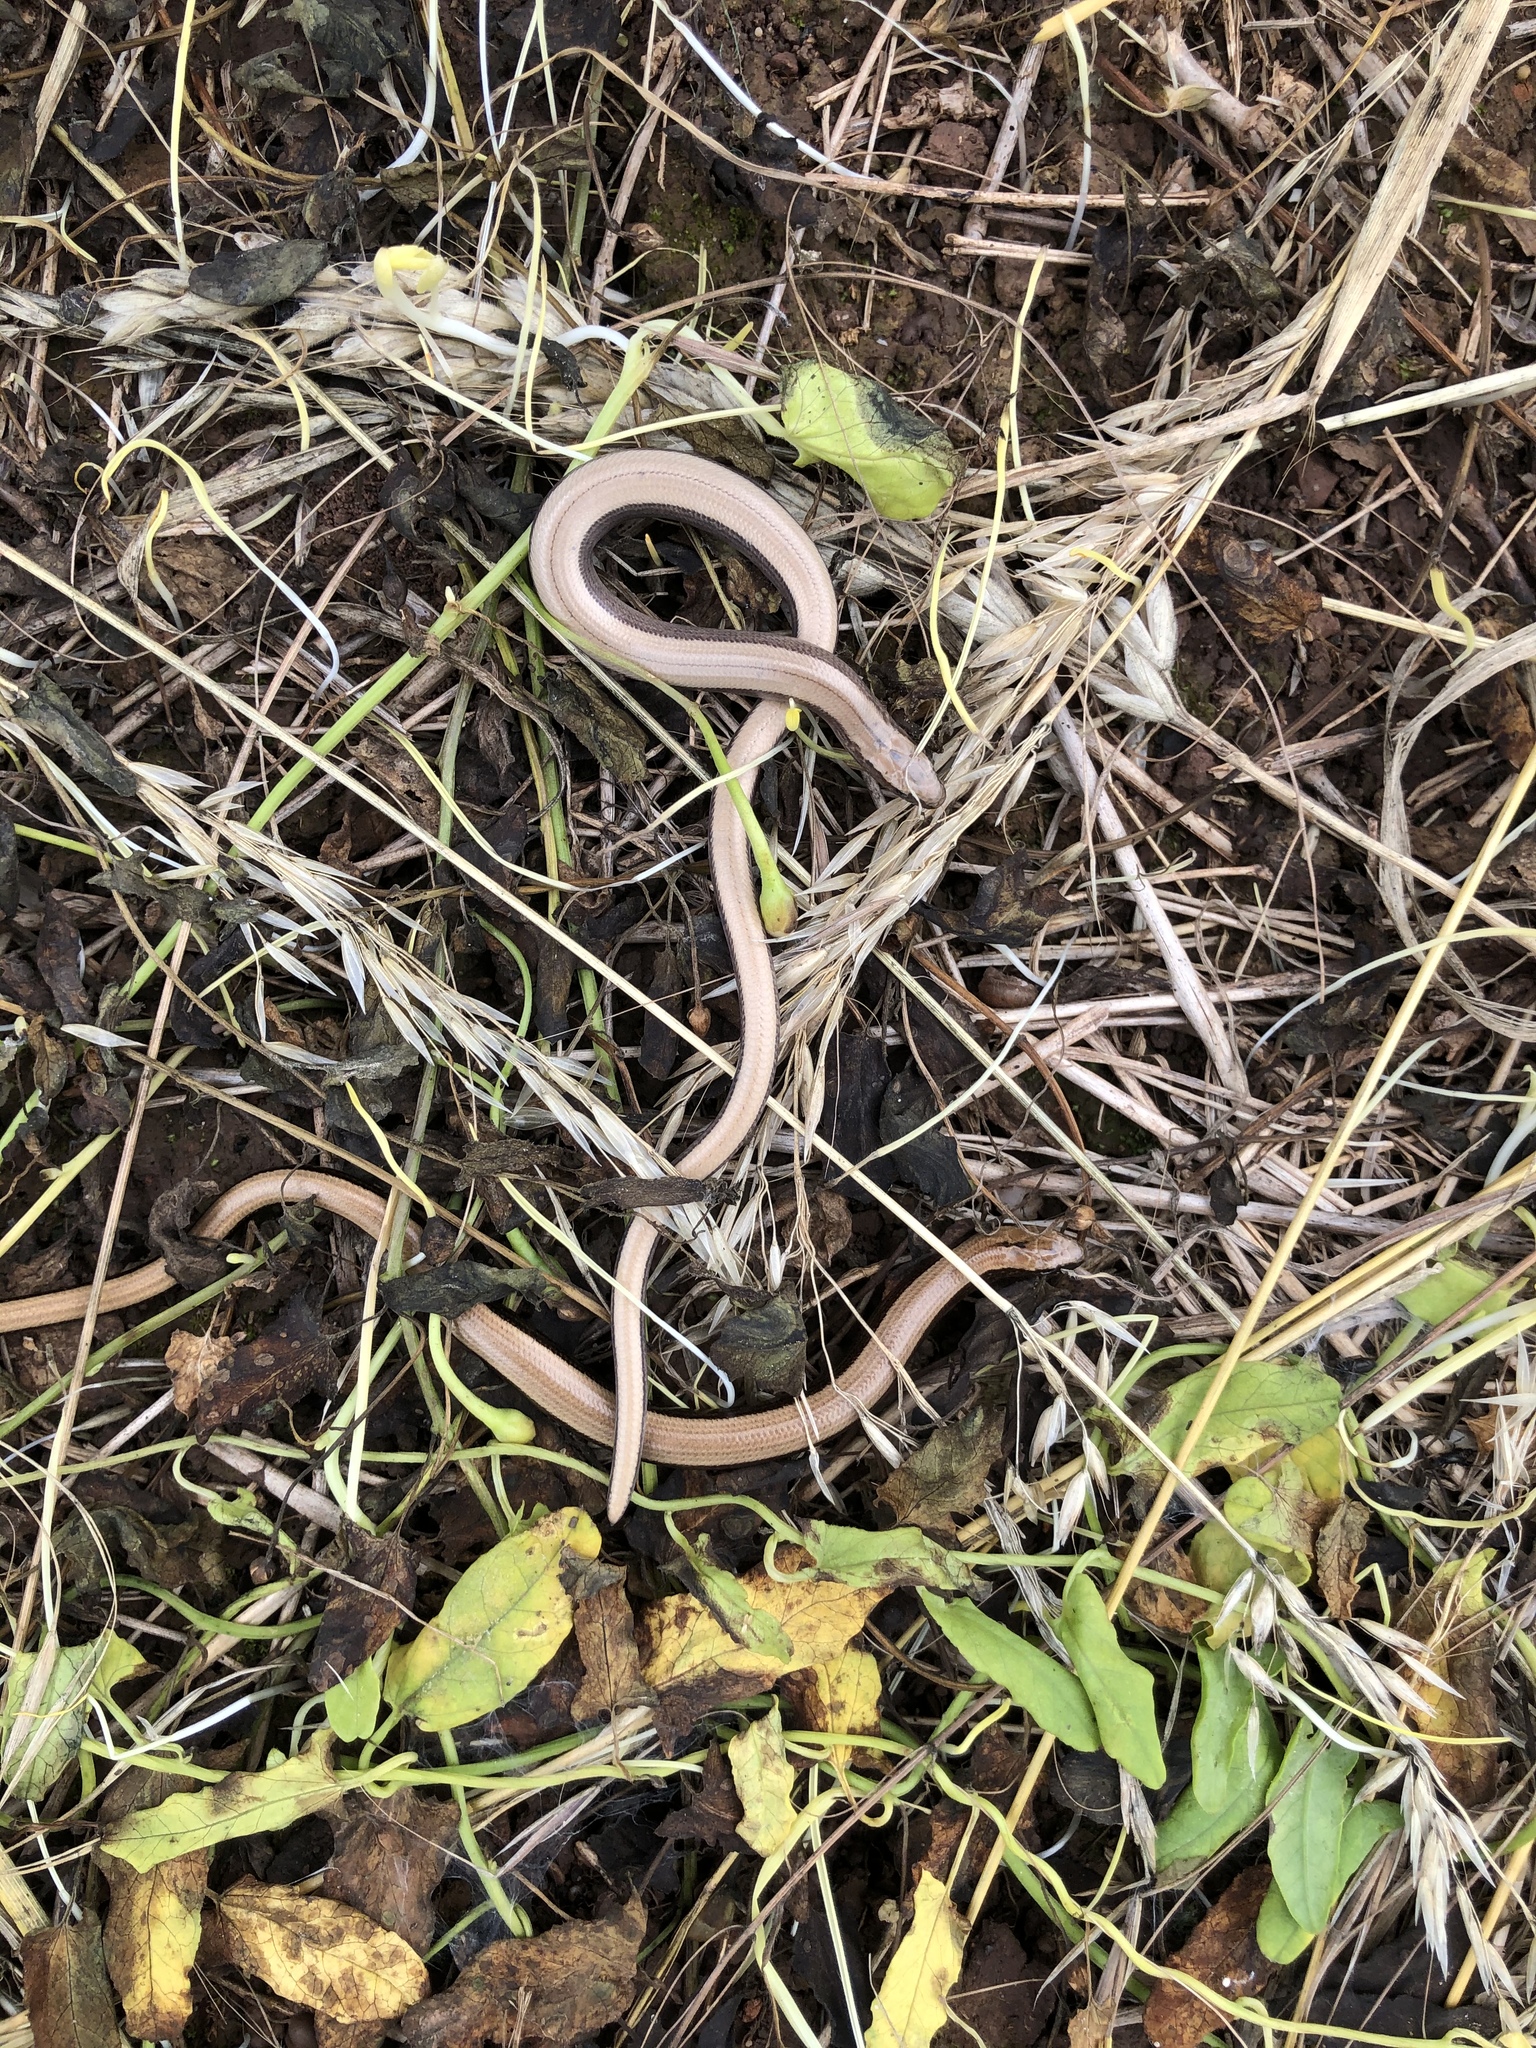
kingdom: Animalia
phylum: Chordata
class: Squamata
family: Anguidae
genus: Anguis
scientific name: Anguis fragilis
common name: Slow worm
